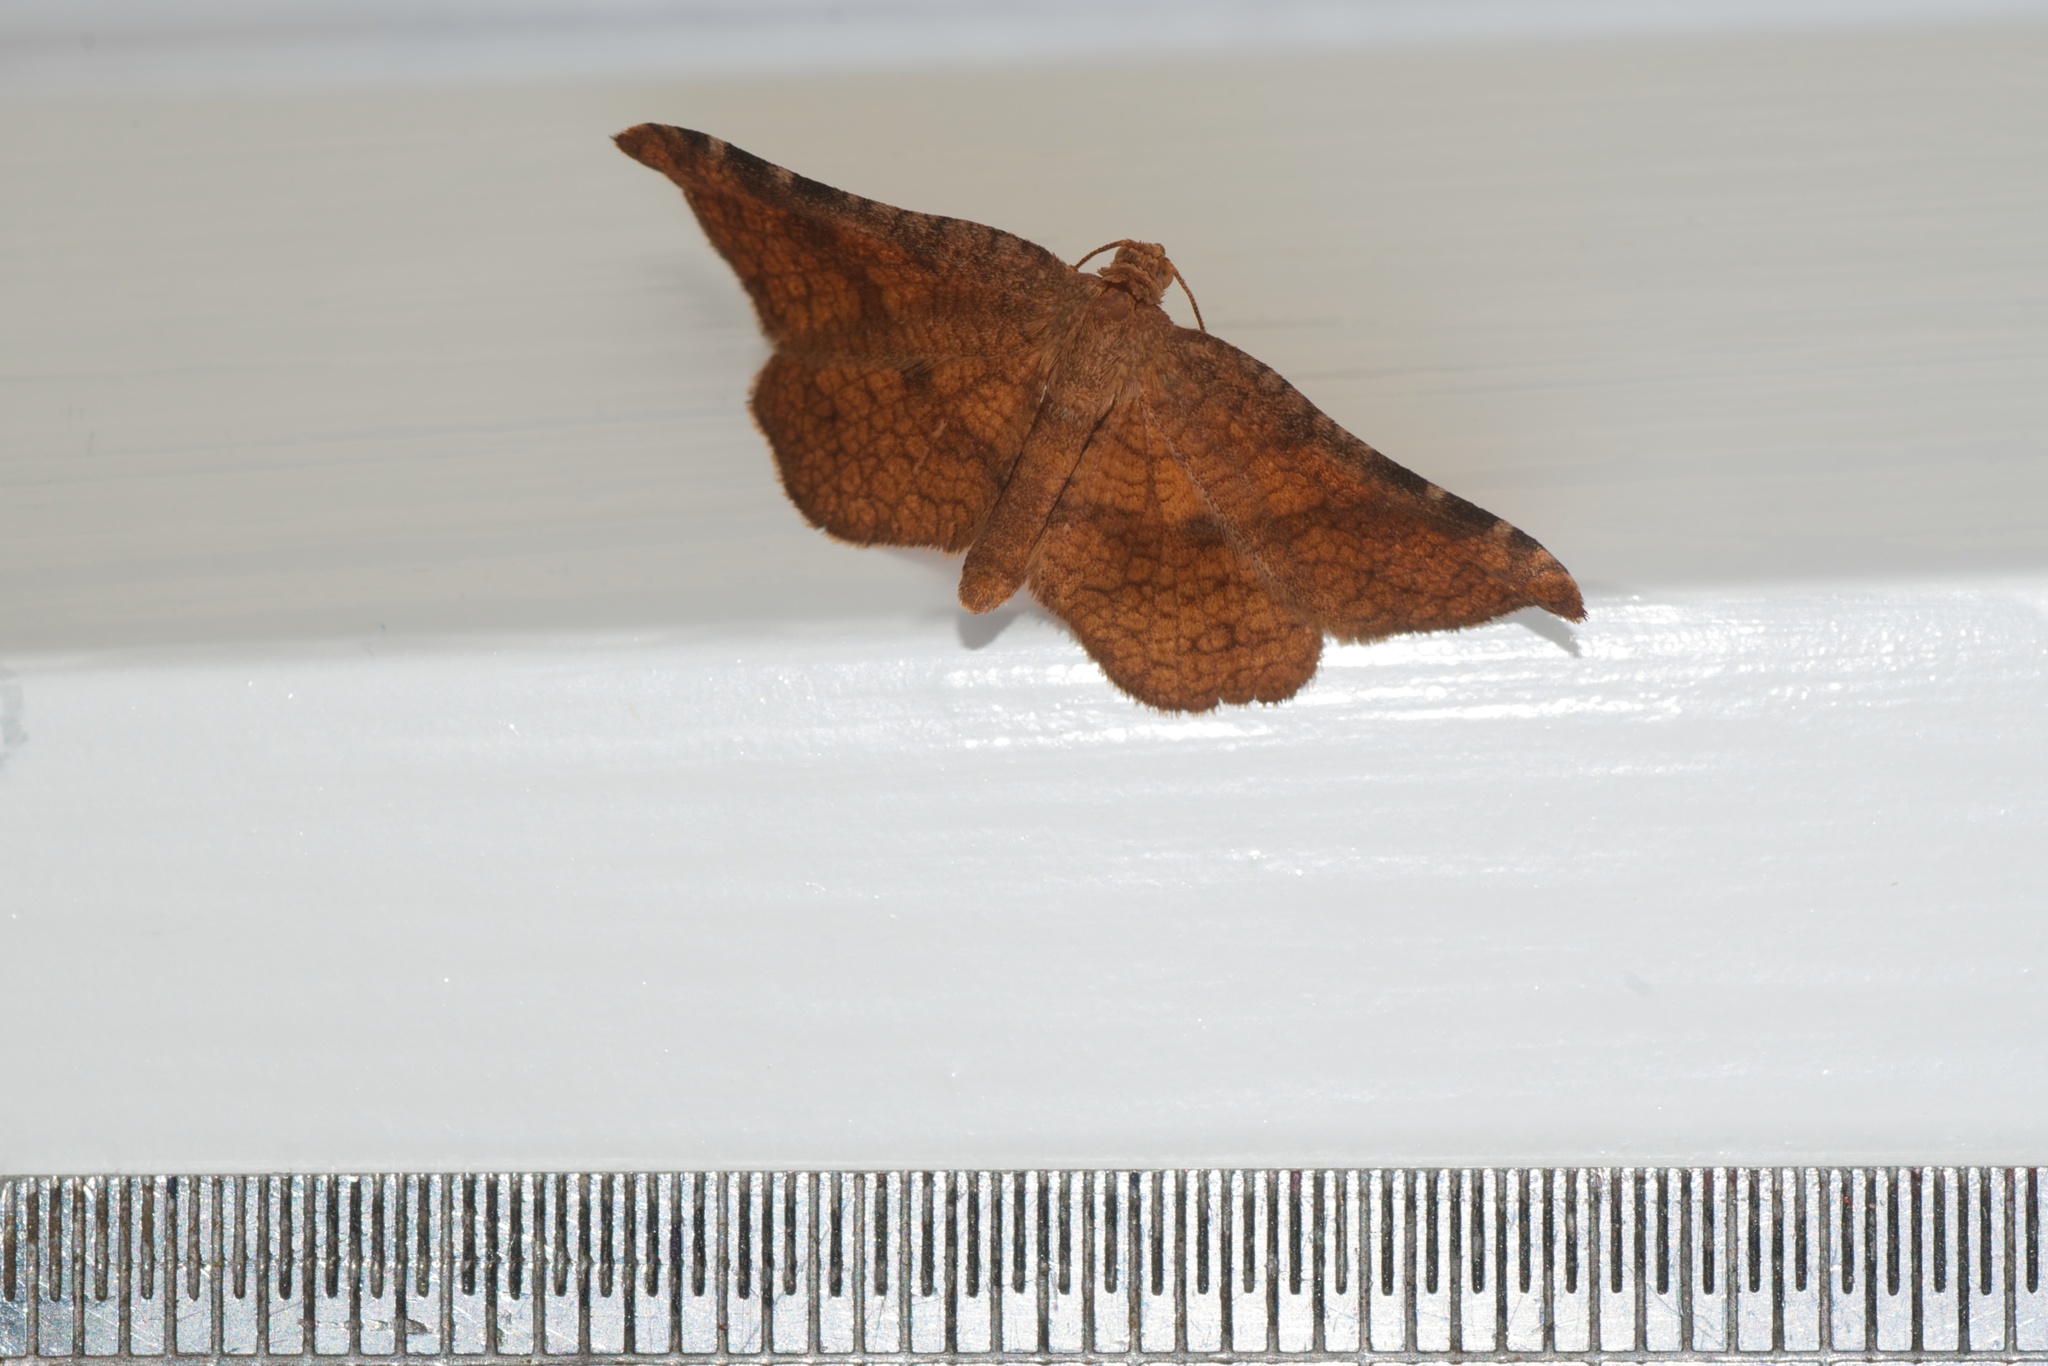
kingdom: Animalia
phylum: Arthropoda
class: Insecta
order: Lepidoptera
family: Thyrididae
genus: Morova
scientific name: Morova subfasciata
